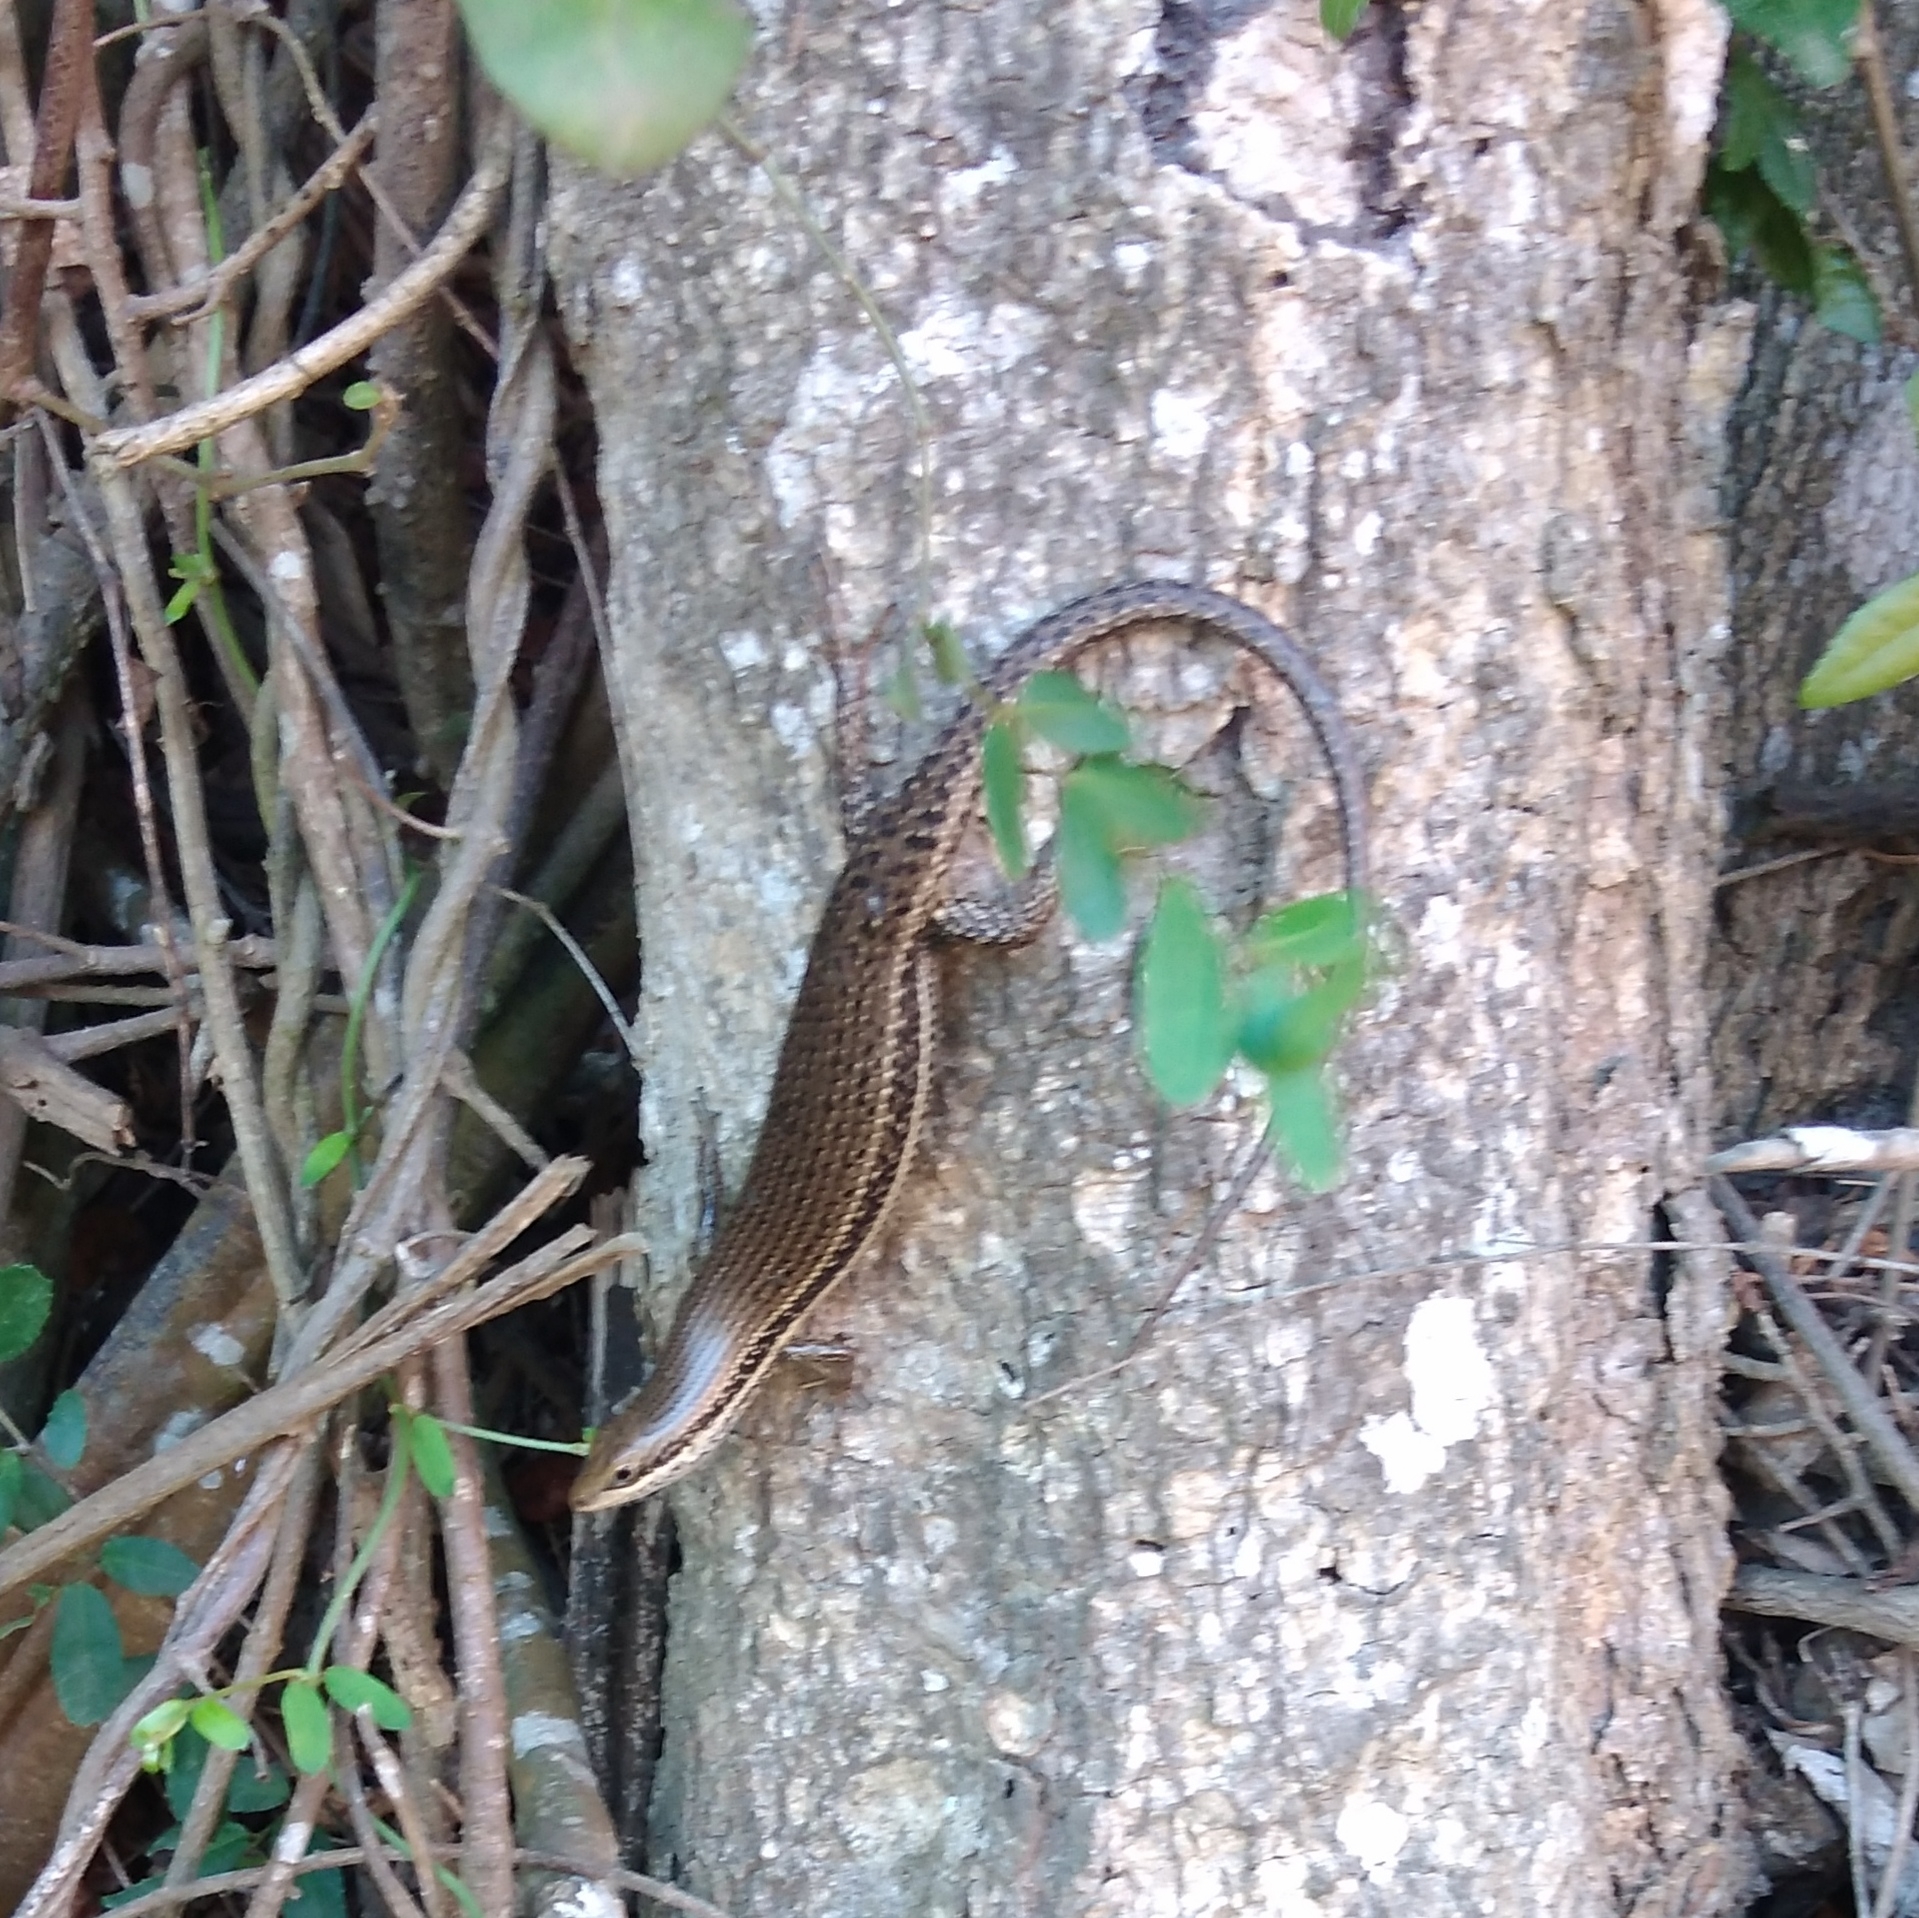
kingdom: Animalia
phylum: Chordata
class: Squamata
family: Scincidae
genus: Trachylepis
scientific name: Trachylepis depressa
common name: Eastern coastal skink
